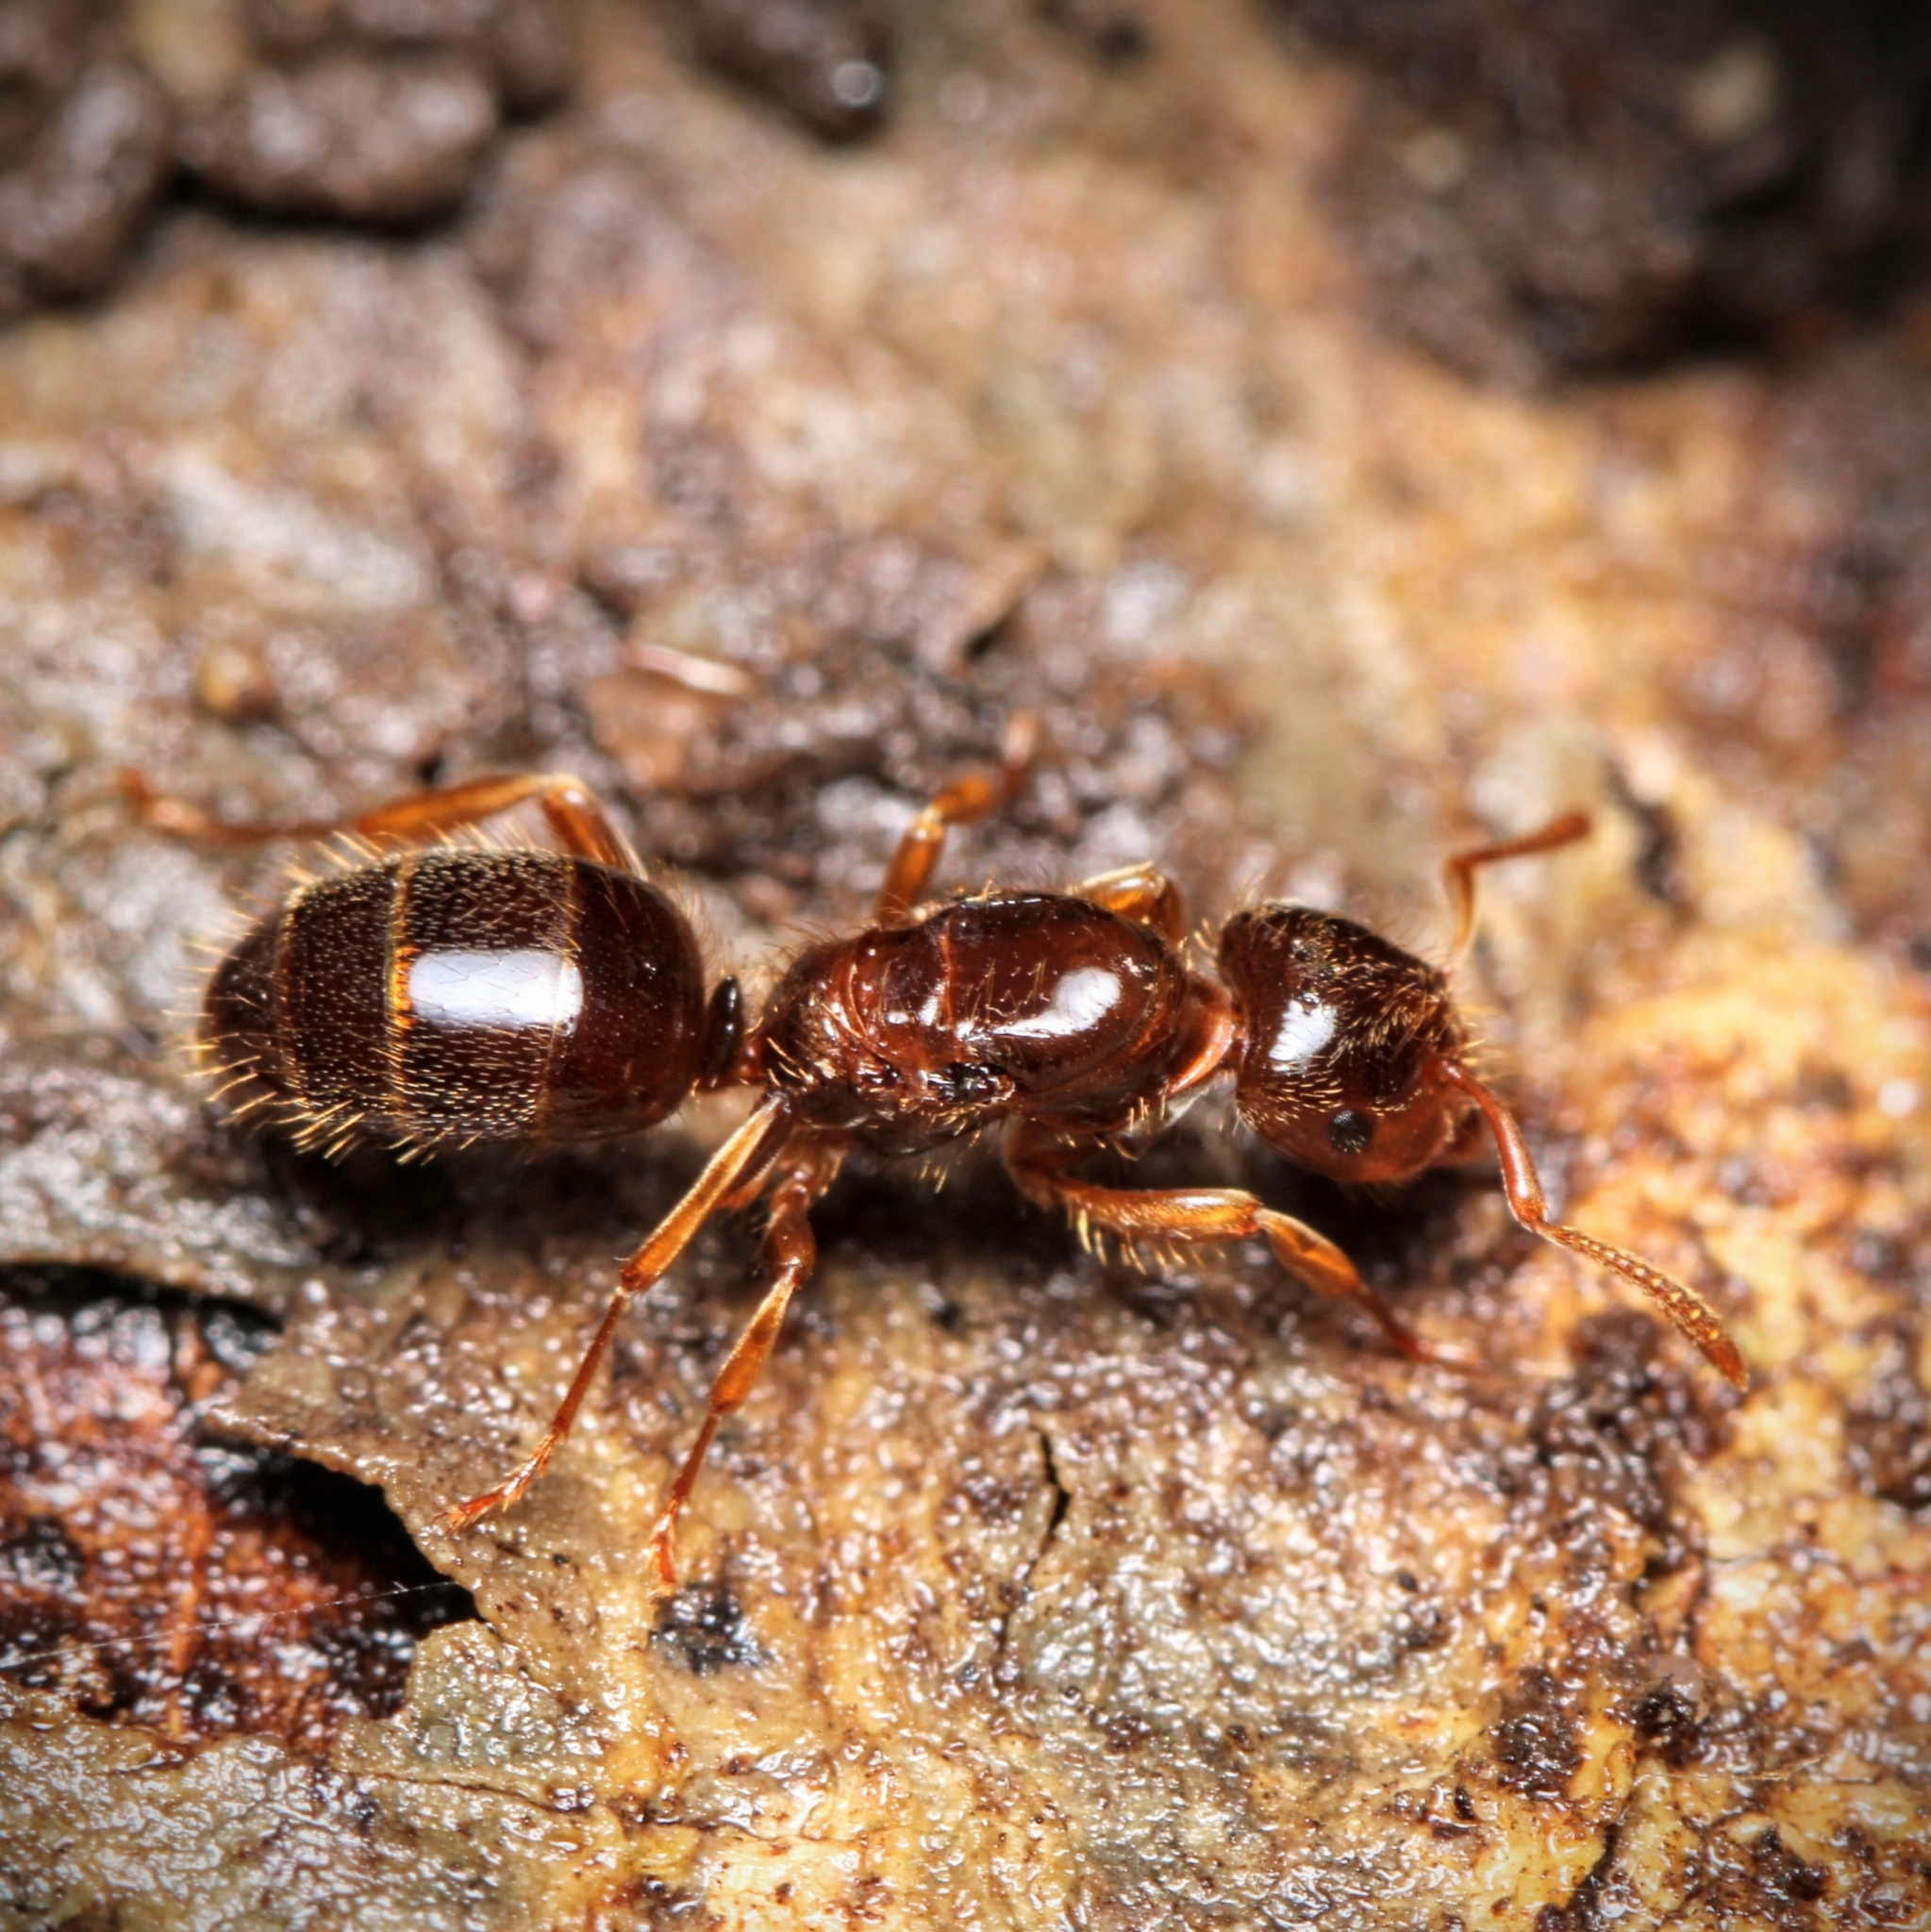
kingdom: Animalia
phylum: Arthropoda
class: Insecta
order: Hymenoptera
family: Formicidae
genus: Lasius
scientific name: Lasius claviger
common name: Common citronella ant
